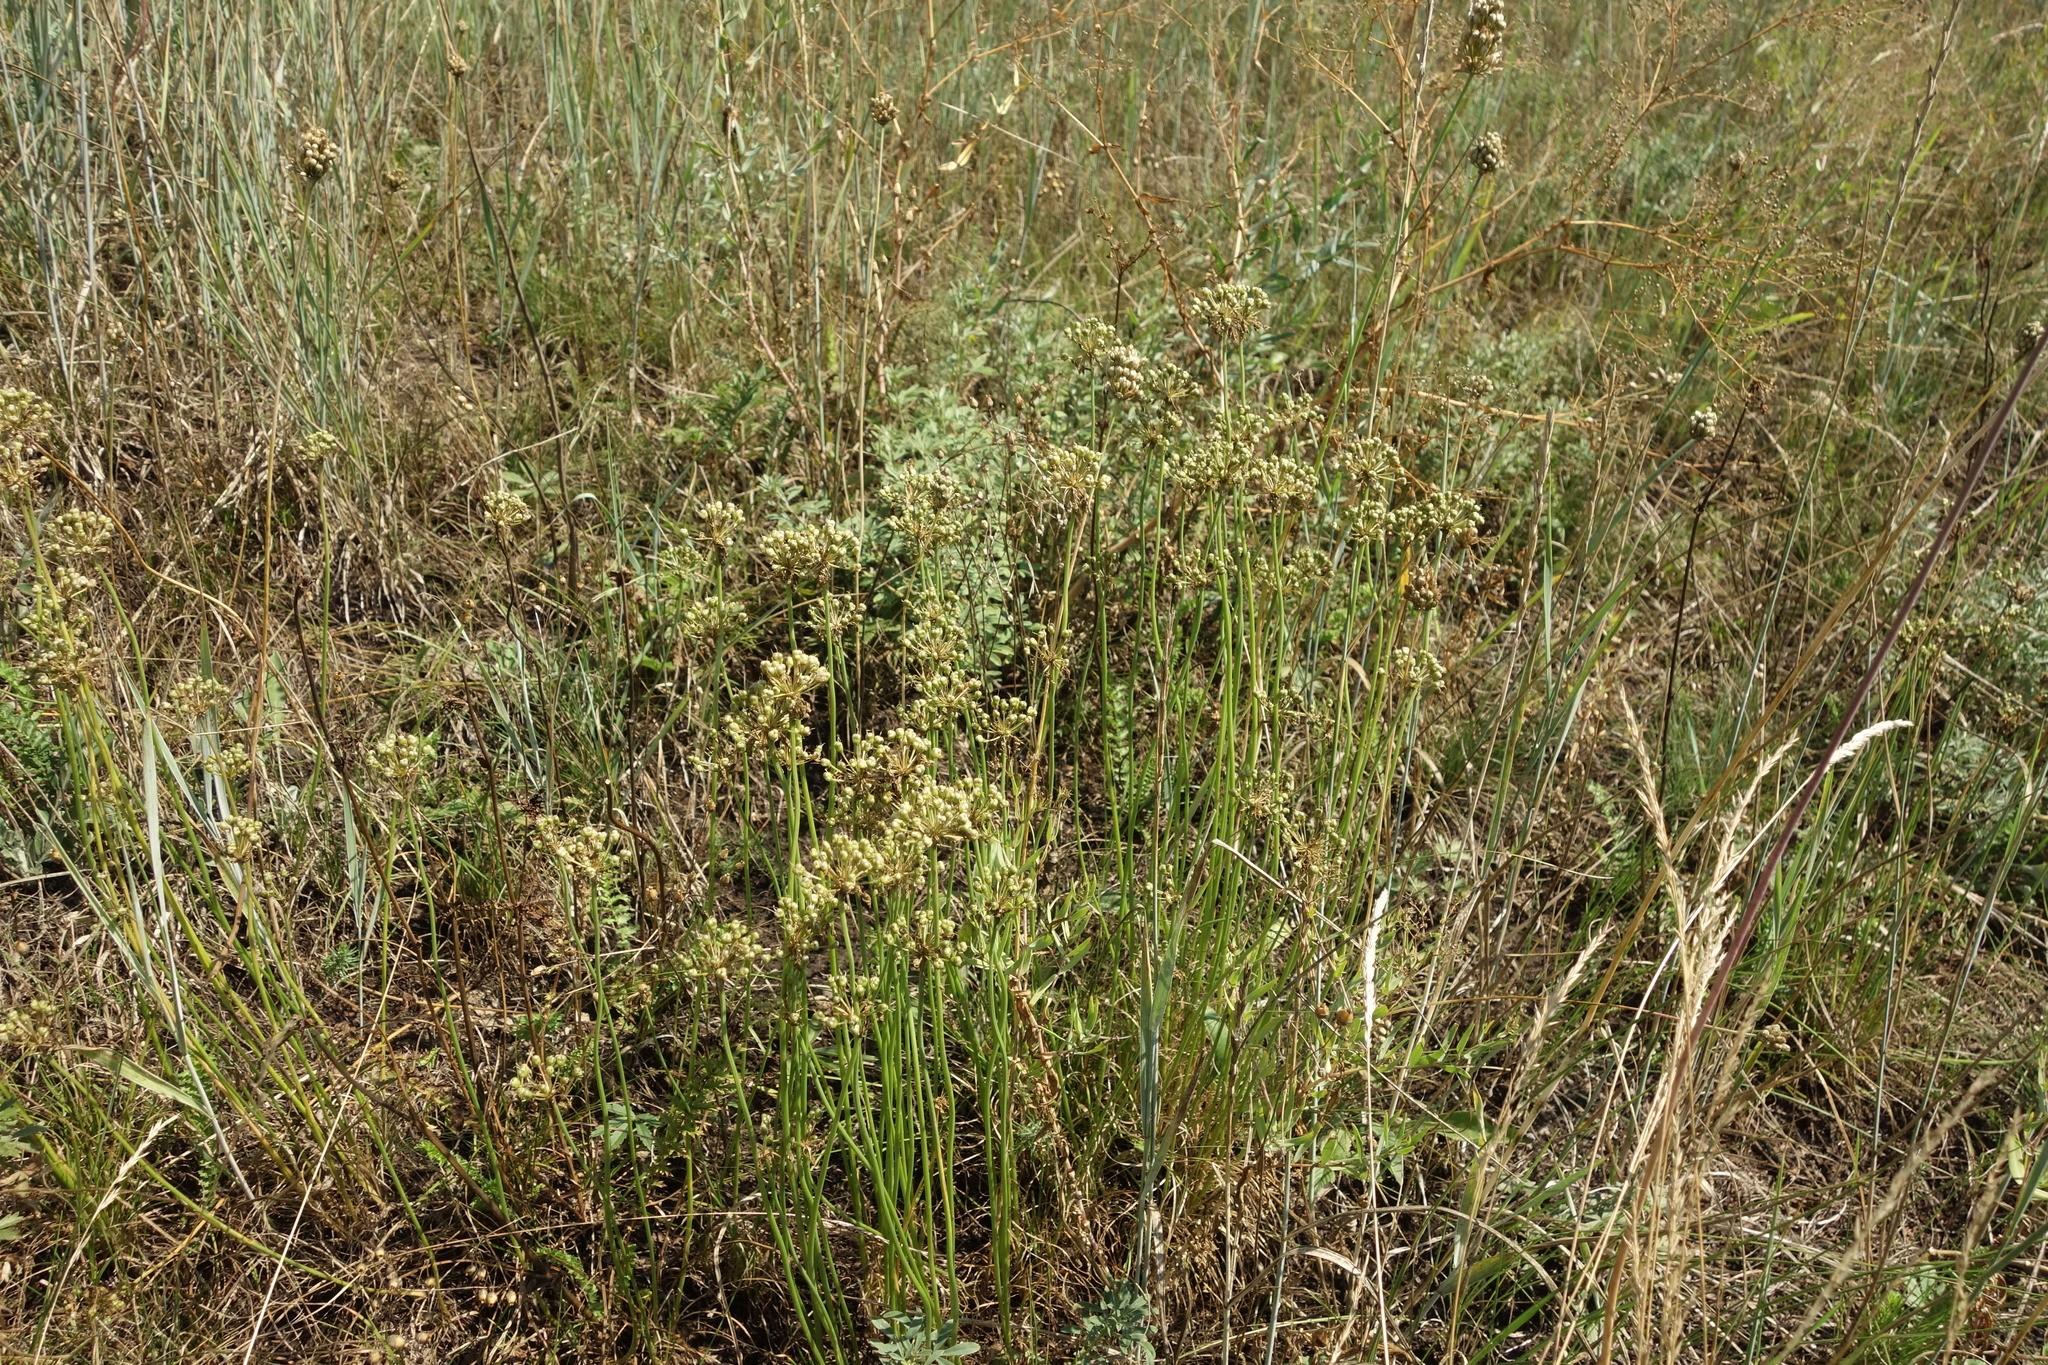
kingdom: Plantae
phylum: Tracheophyta
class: Liliopsida
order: Asparagales
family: Amaryllidaceae
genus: Allium
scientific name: Allium flavescens
